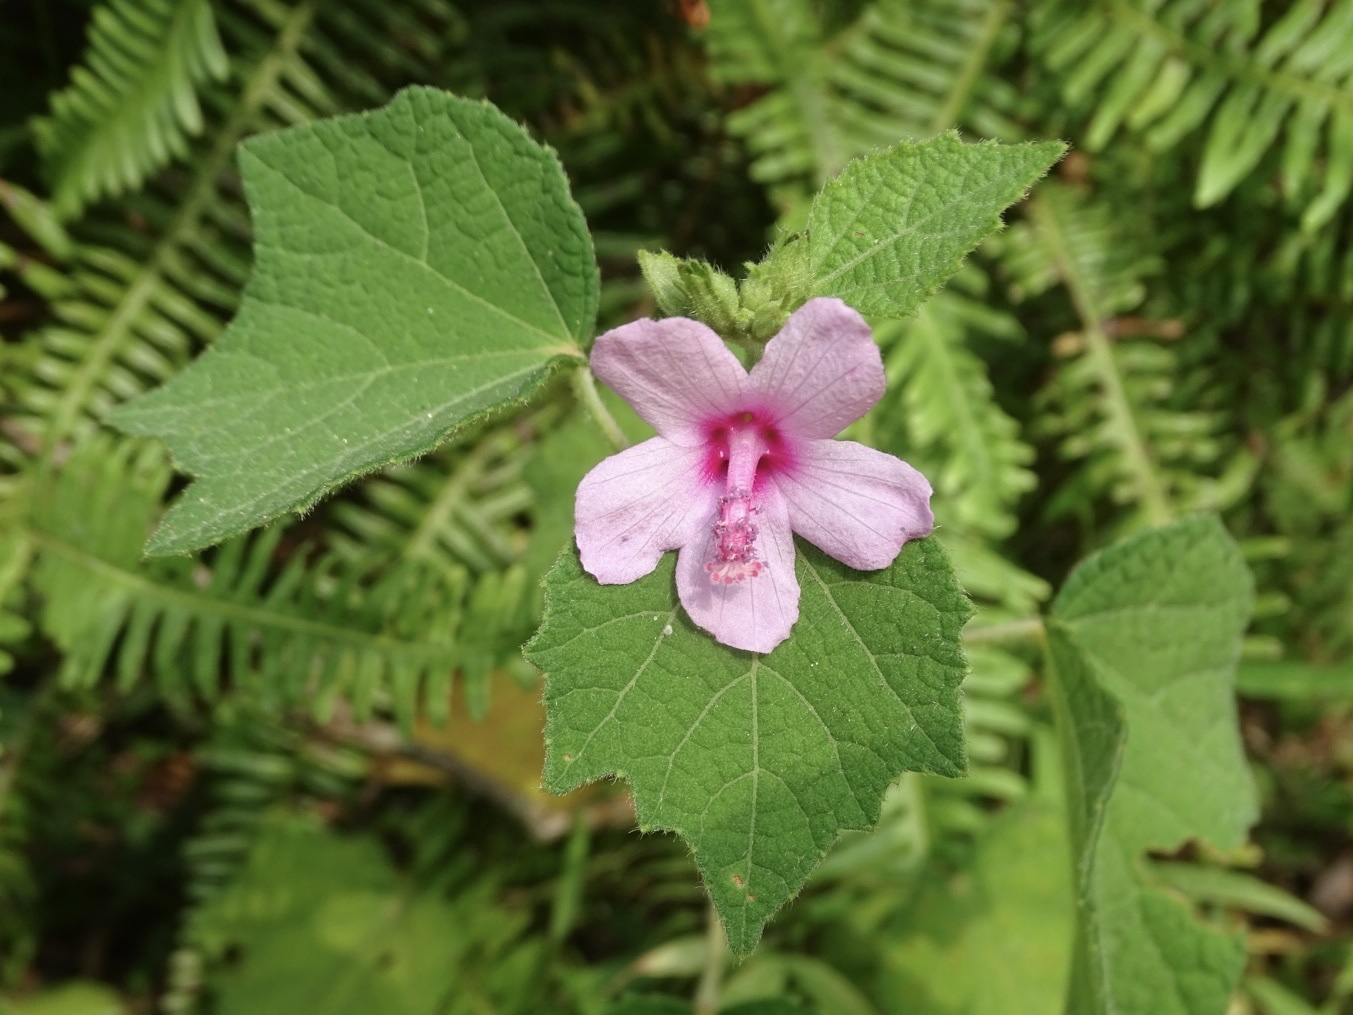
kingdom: Plantae
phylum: Tracheophyta
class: Magnoliopsida
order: Malvales
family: Malvaceae
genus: Urena
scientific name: Urena lobata
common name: Caesarweed
